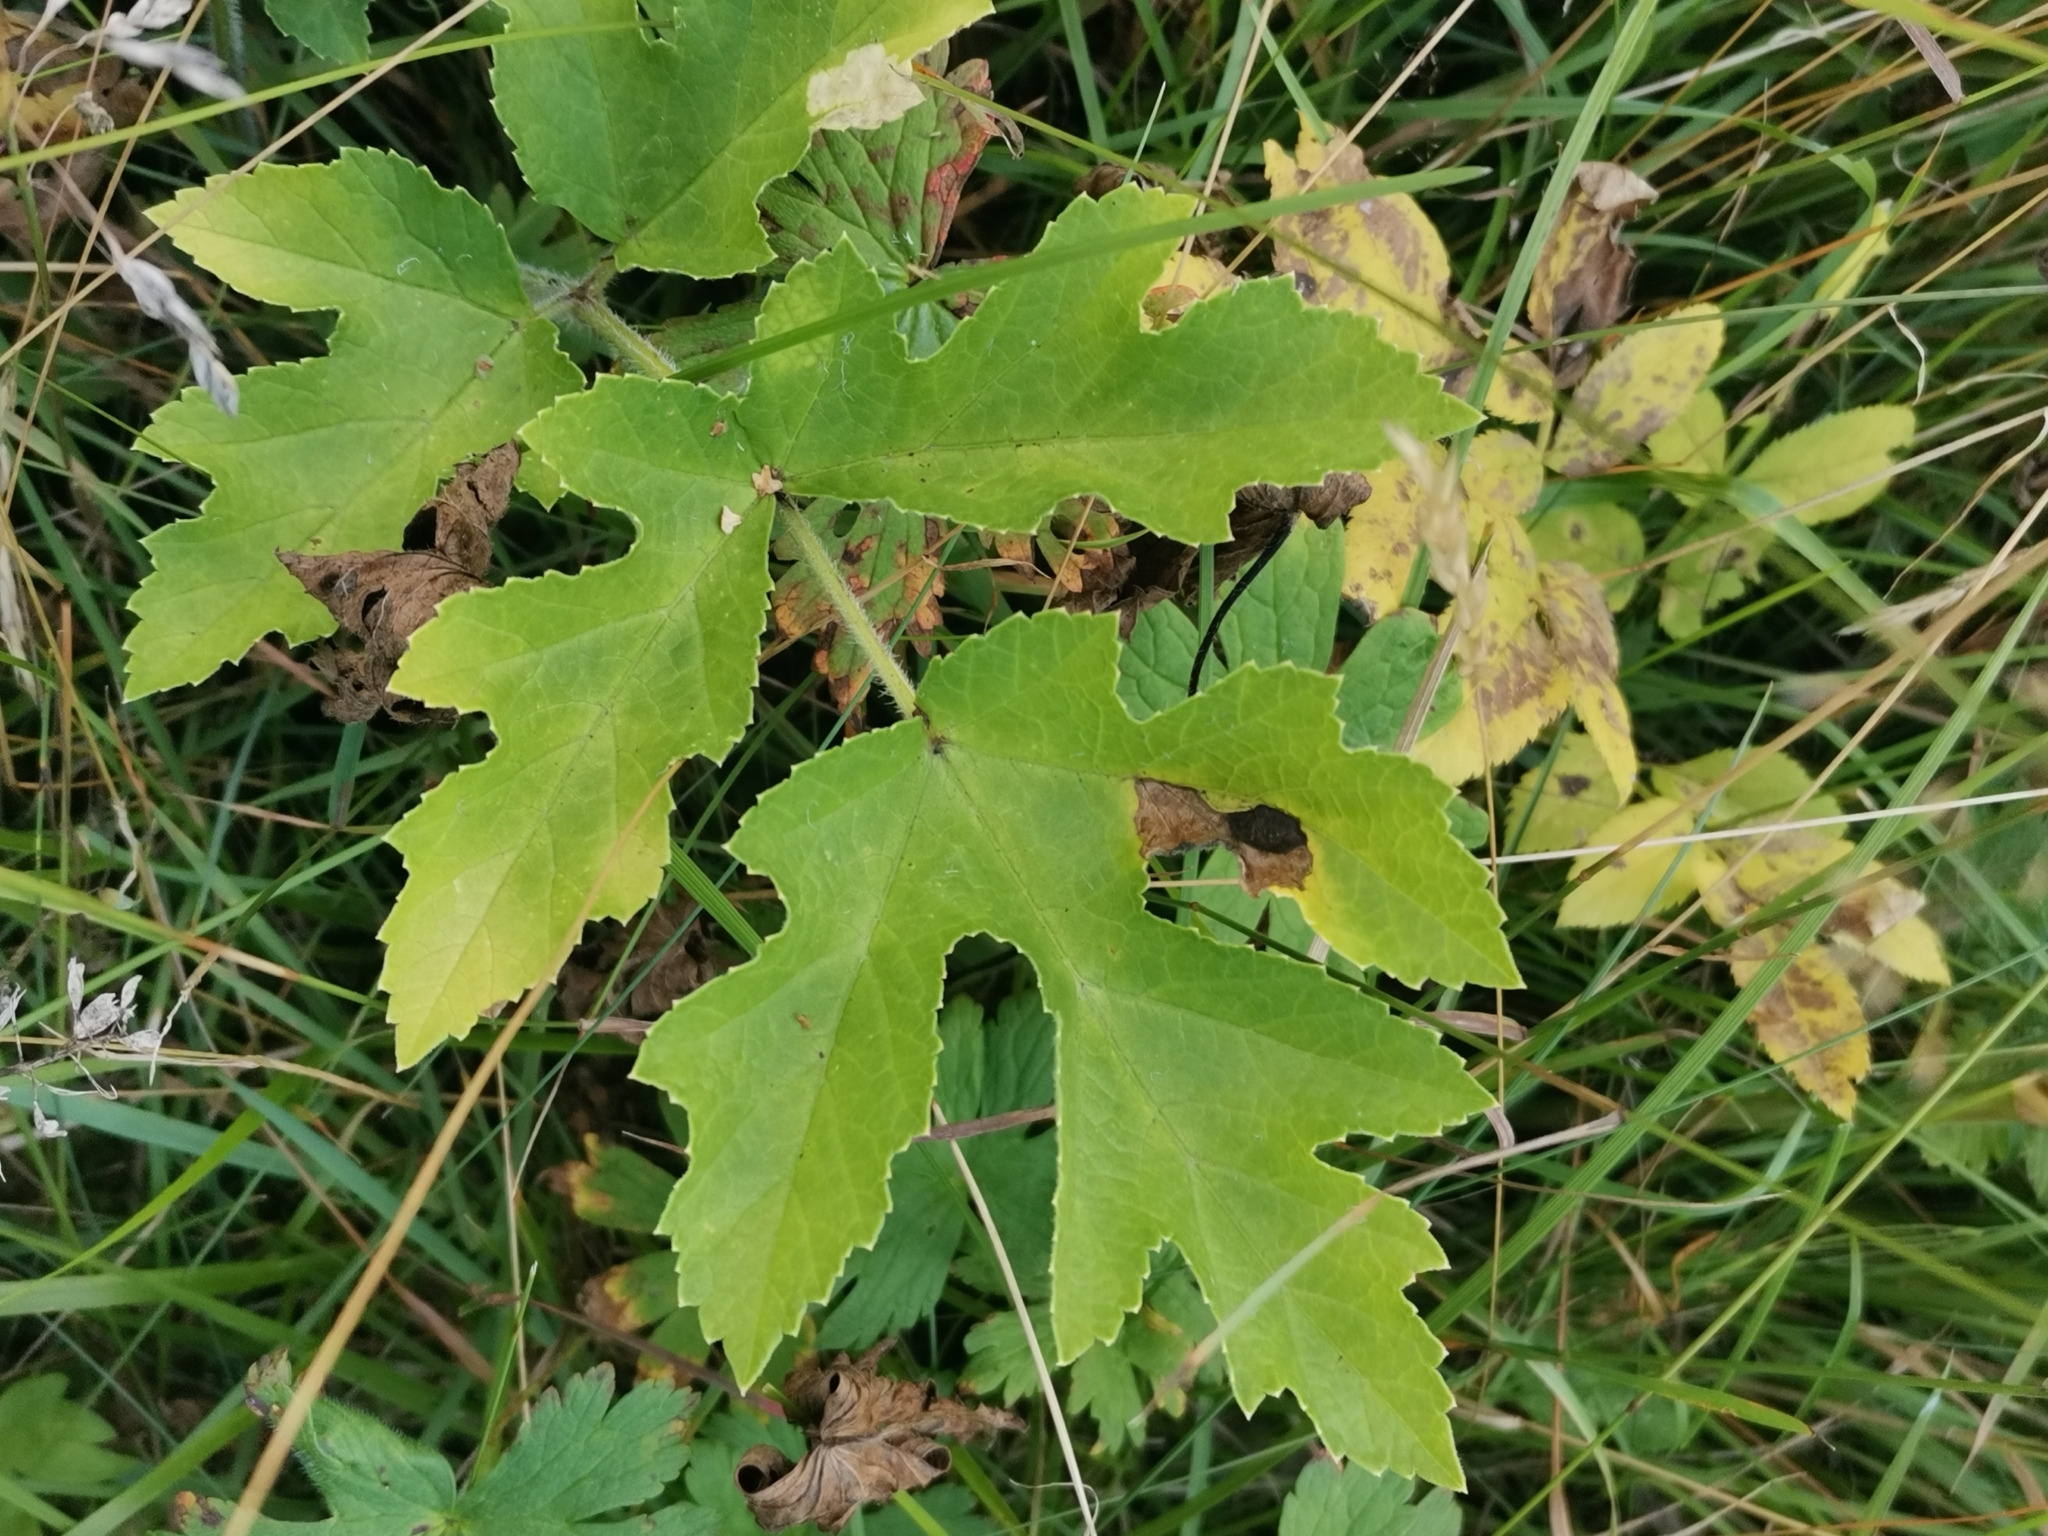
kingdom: Plantae
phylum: Tracheophyta
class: Magnoliopsida
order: Apiales
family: Apiaceae
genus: Heracleum
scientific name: Heracleum sphondylium
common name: Hogweed
